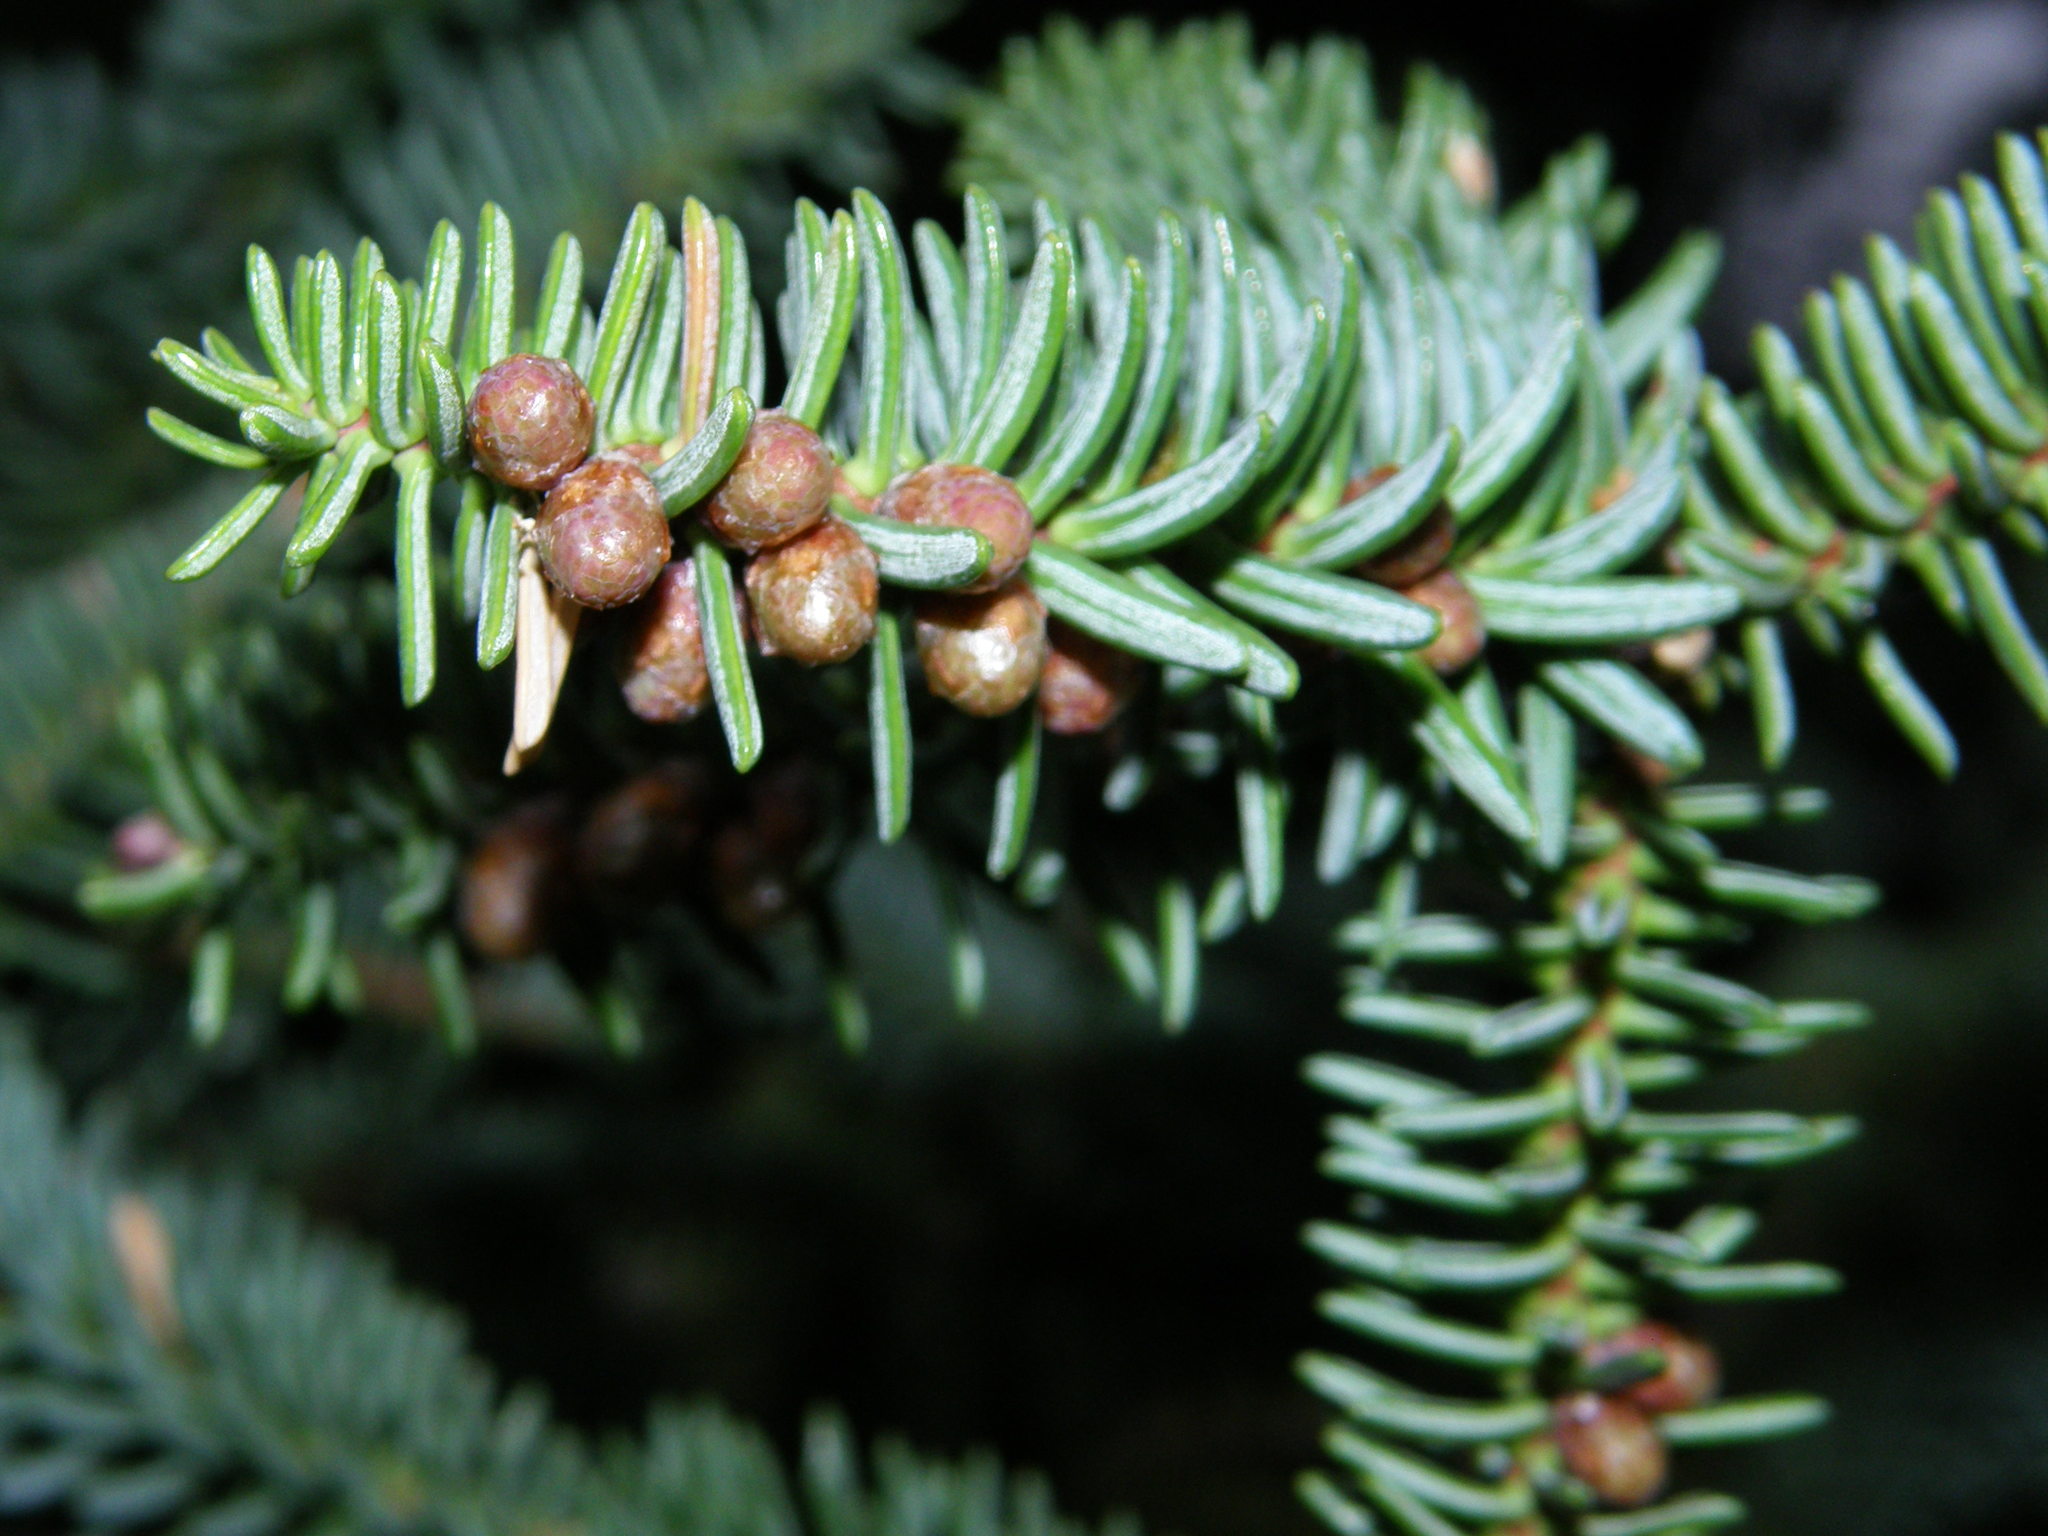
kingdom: Plantae
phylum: Tracheophyta
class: Pinopsida
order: Pinales
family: Pinaceae
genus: Abies
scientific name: Abies pinsapo
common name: Spanish fir
